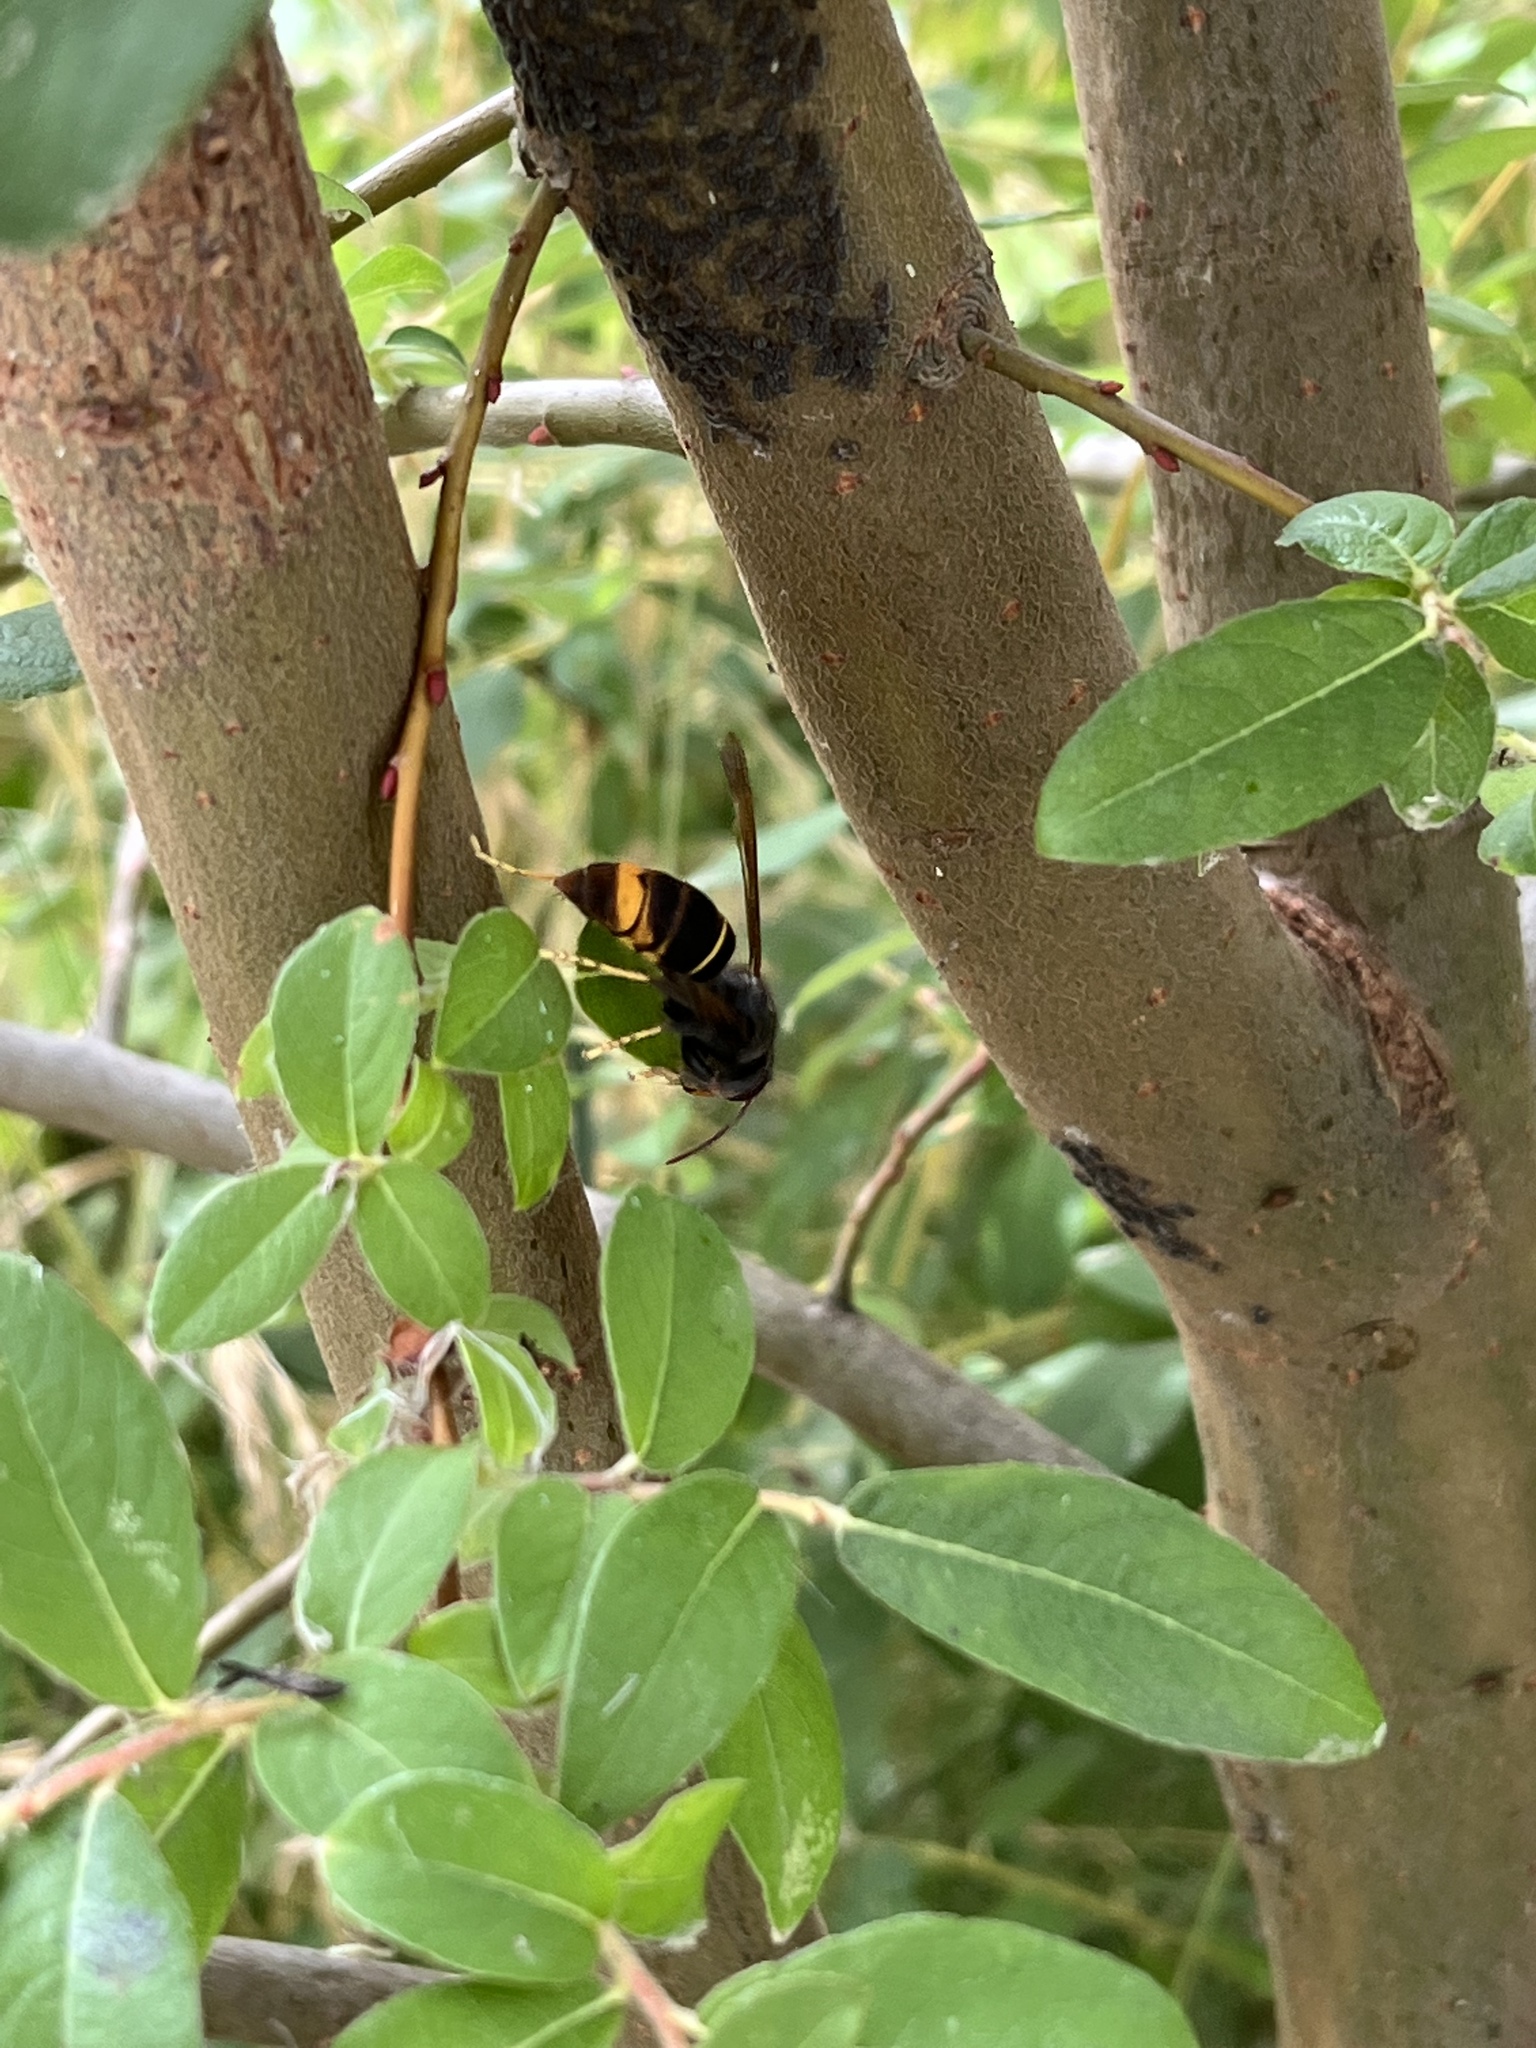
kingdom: Animalia
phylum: Arthropoda
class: Insecta
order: Hymenoptera
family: Vespidae
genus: Vespa
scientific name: Vespa velutina
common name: Asian hornet
